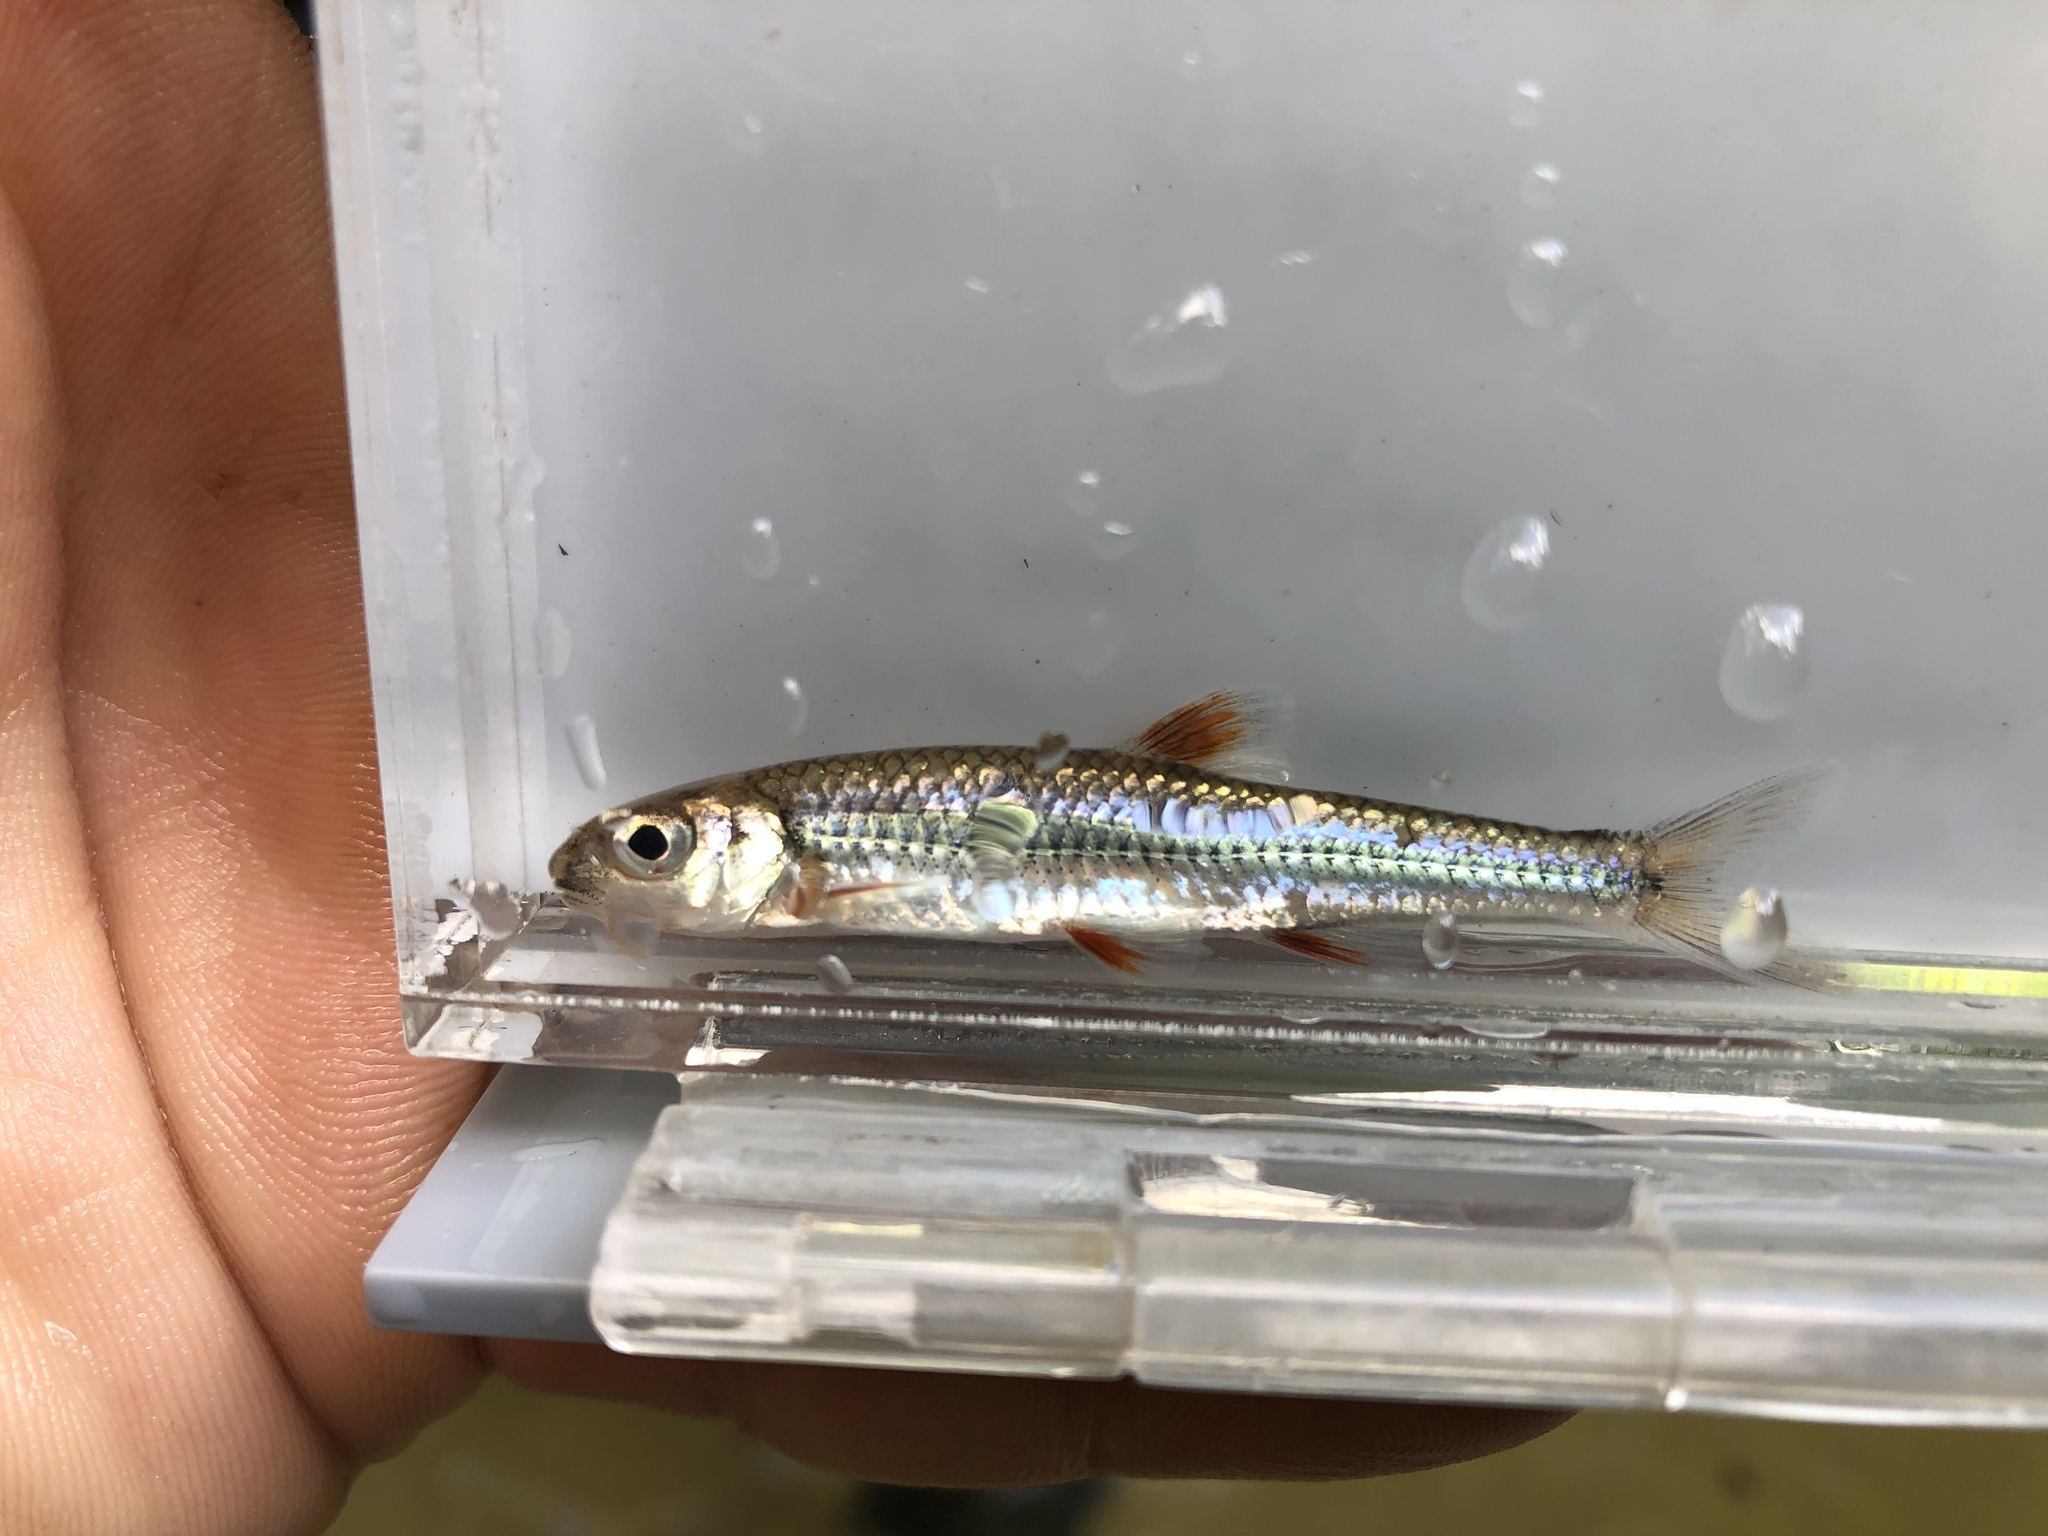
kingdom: Animalia
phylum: Chordata
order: Cypriniformes
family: Cyprinidae
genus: Notropis
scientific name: Notropis
